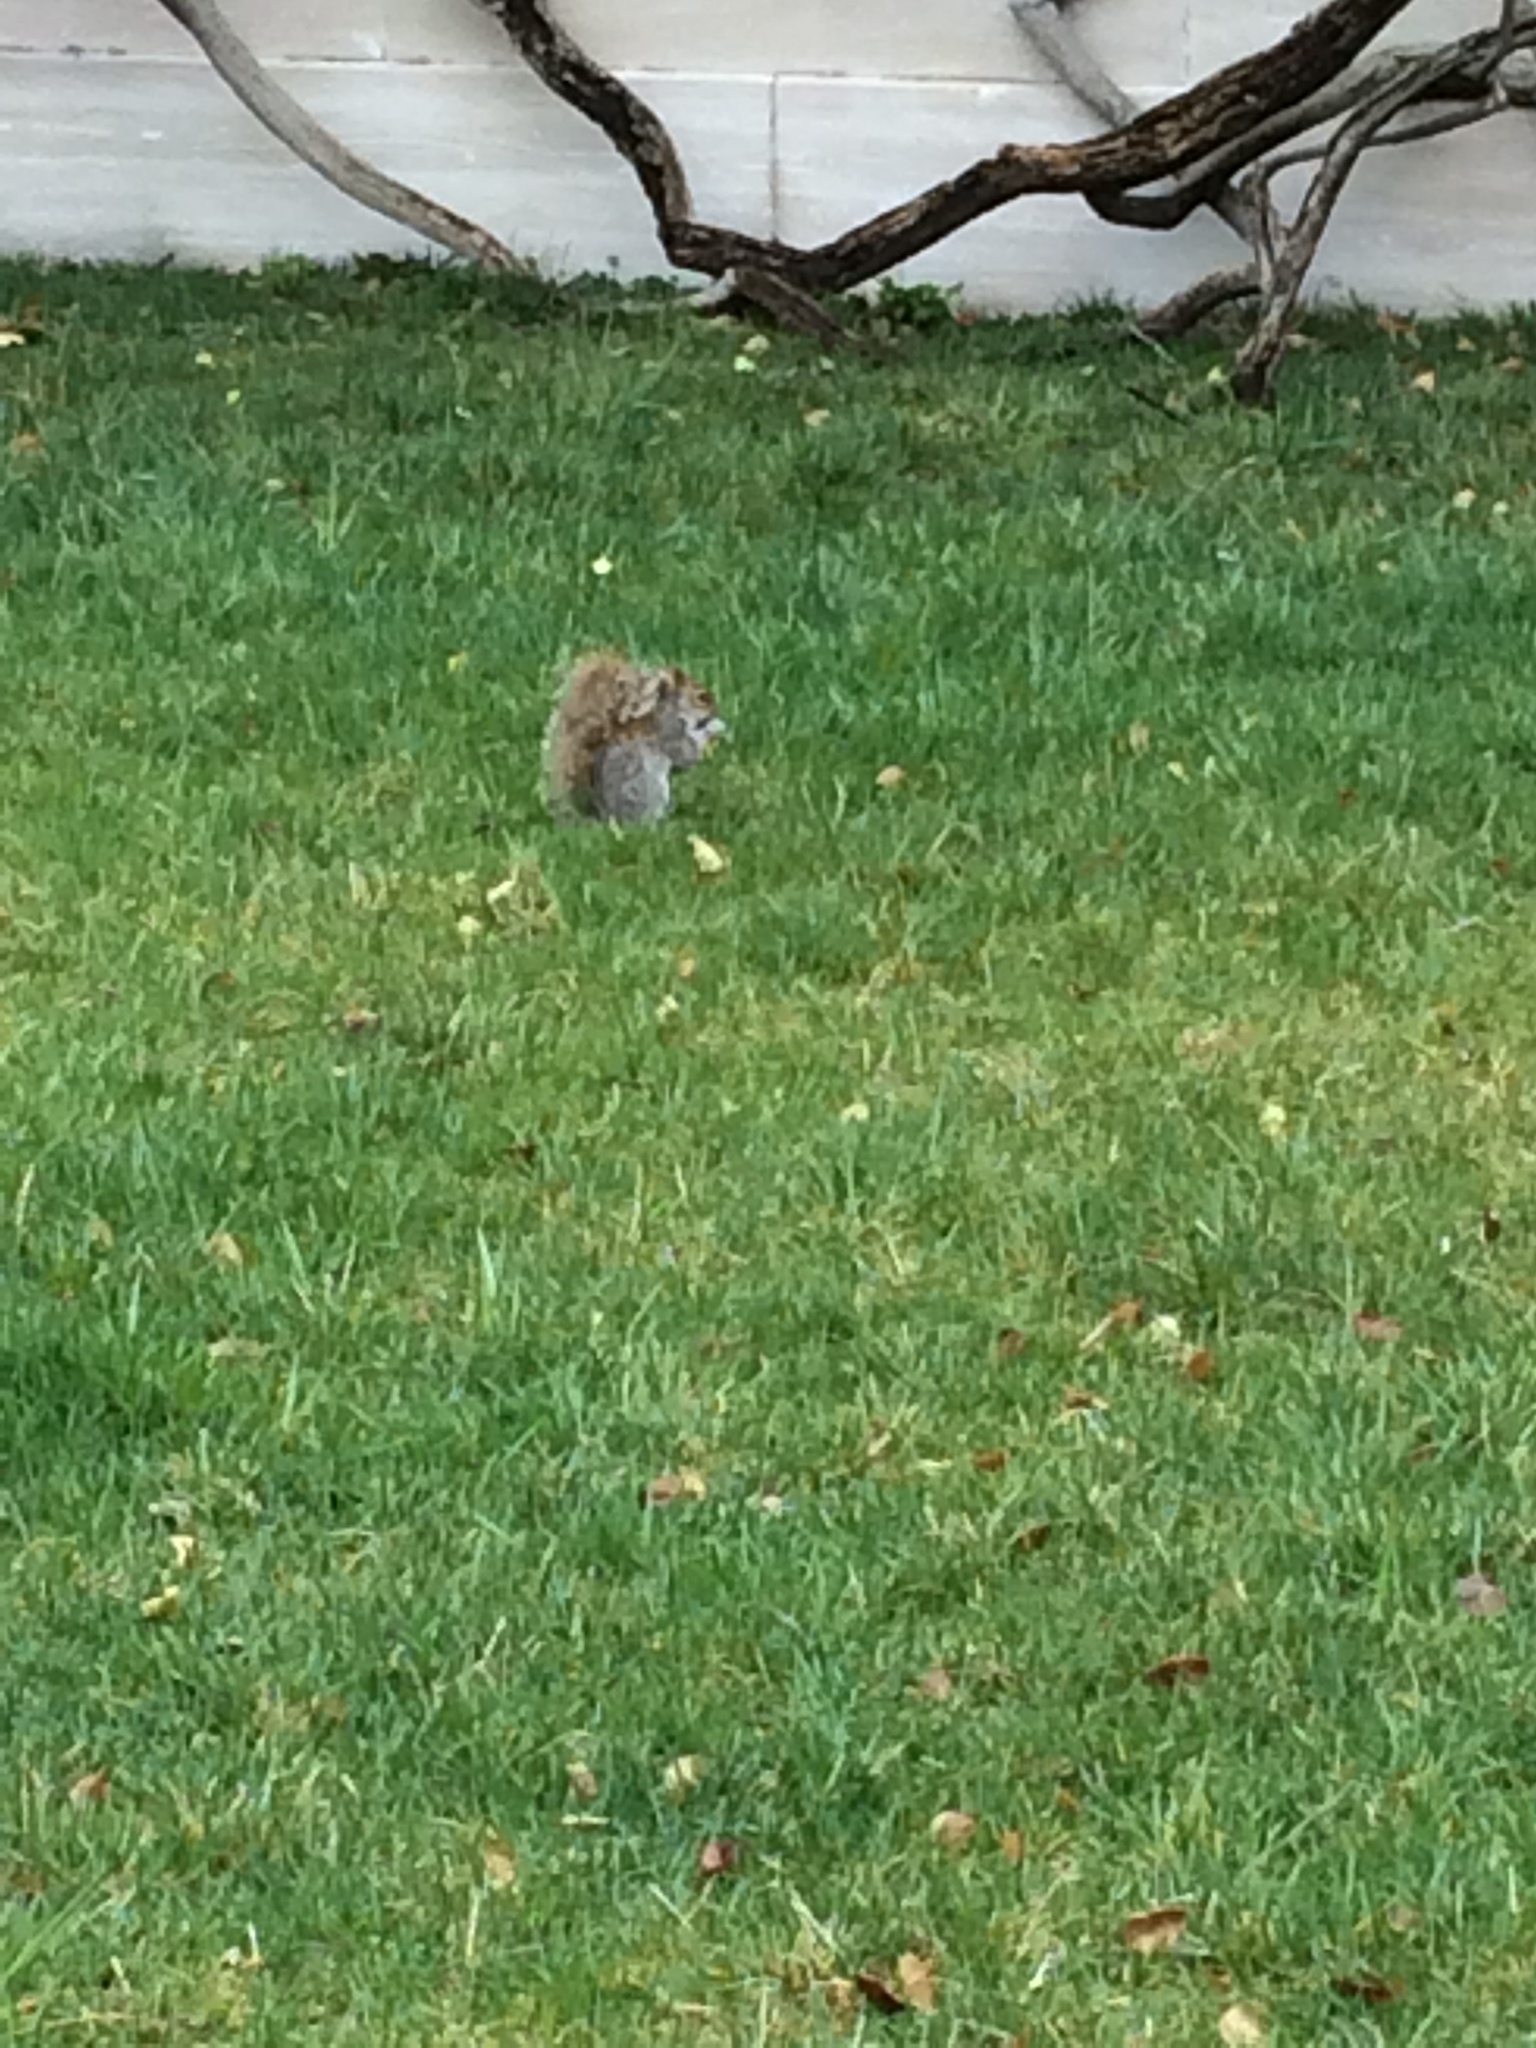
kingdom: Animalia
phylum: Chordata
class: Mammalia
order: Rodentia
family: Sciuridae
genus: Sciurus
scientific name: Sciurus carolinensis
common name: Eastern gray squirrel
